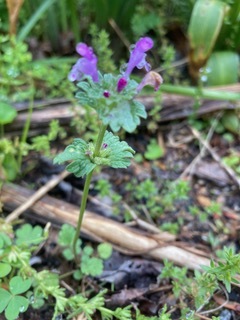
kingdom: Plantae
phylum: Tracheophyta
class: Magnoliopsida
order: Lamiales
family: Lamiaceae
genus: Lamium
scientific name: Lamium amplexicaule
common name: Henbit dead-nettle
